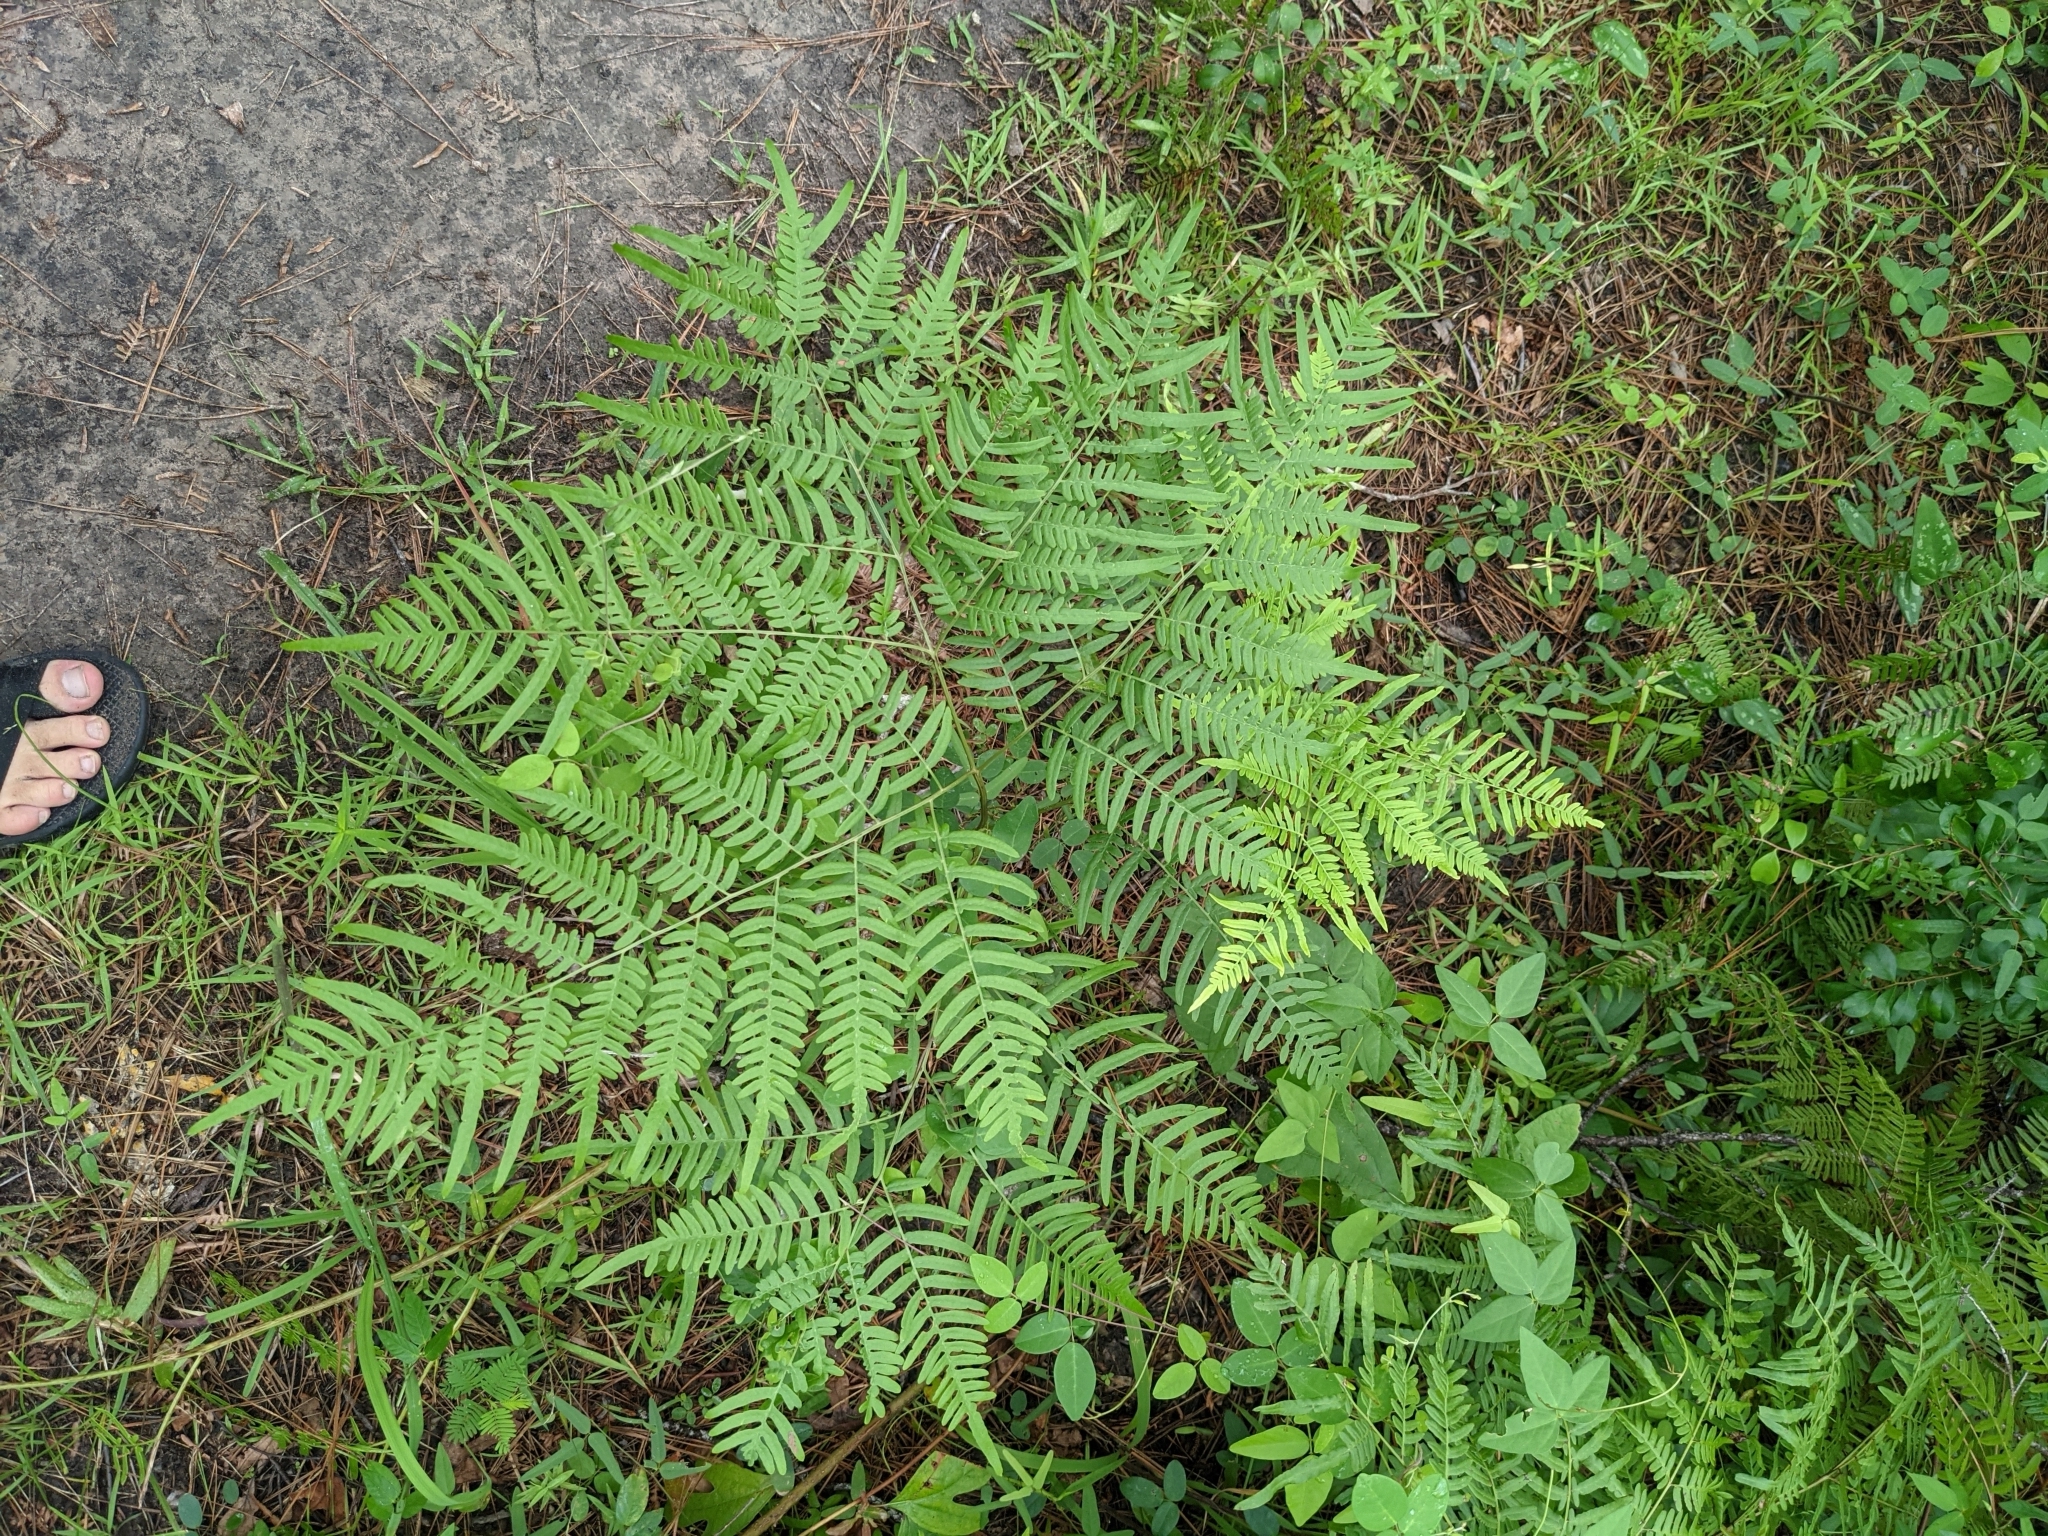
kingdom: Plantae
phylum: Tracheophyta
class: Polypodiopsida
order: Polypodiales
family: Dennstaedtiaceae
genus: Pteridium
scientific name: Pteridium
